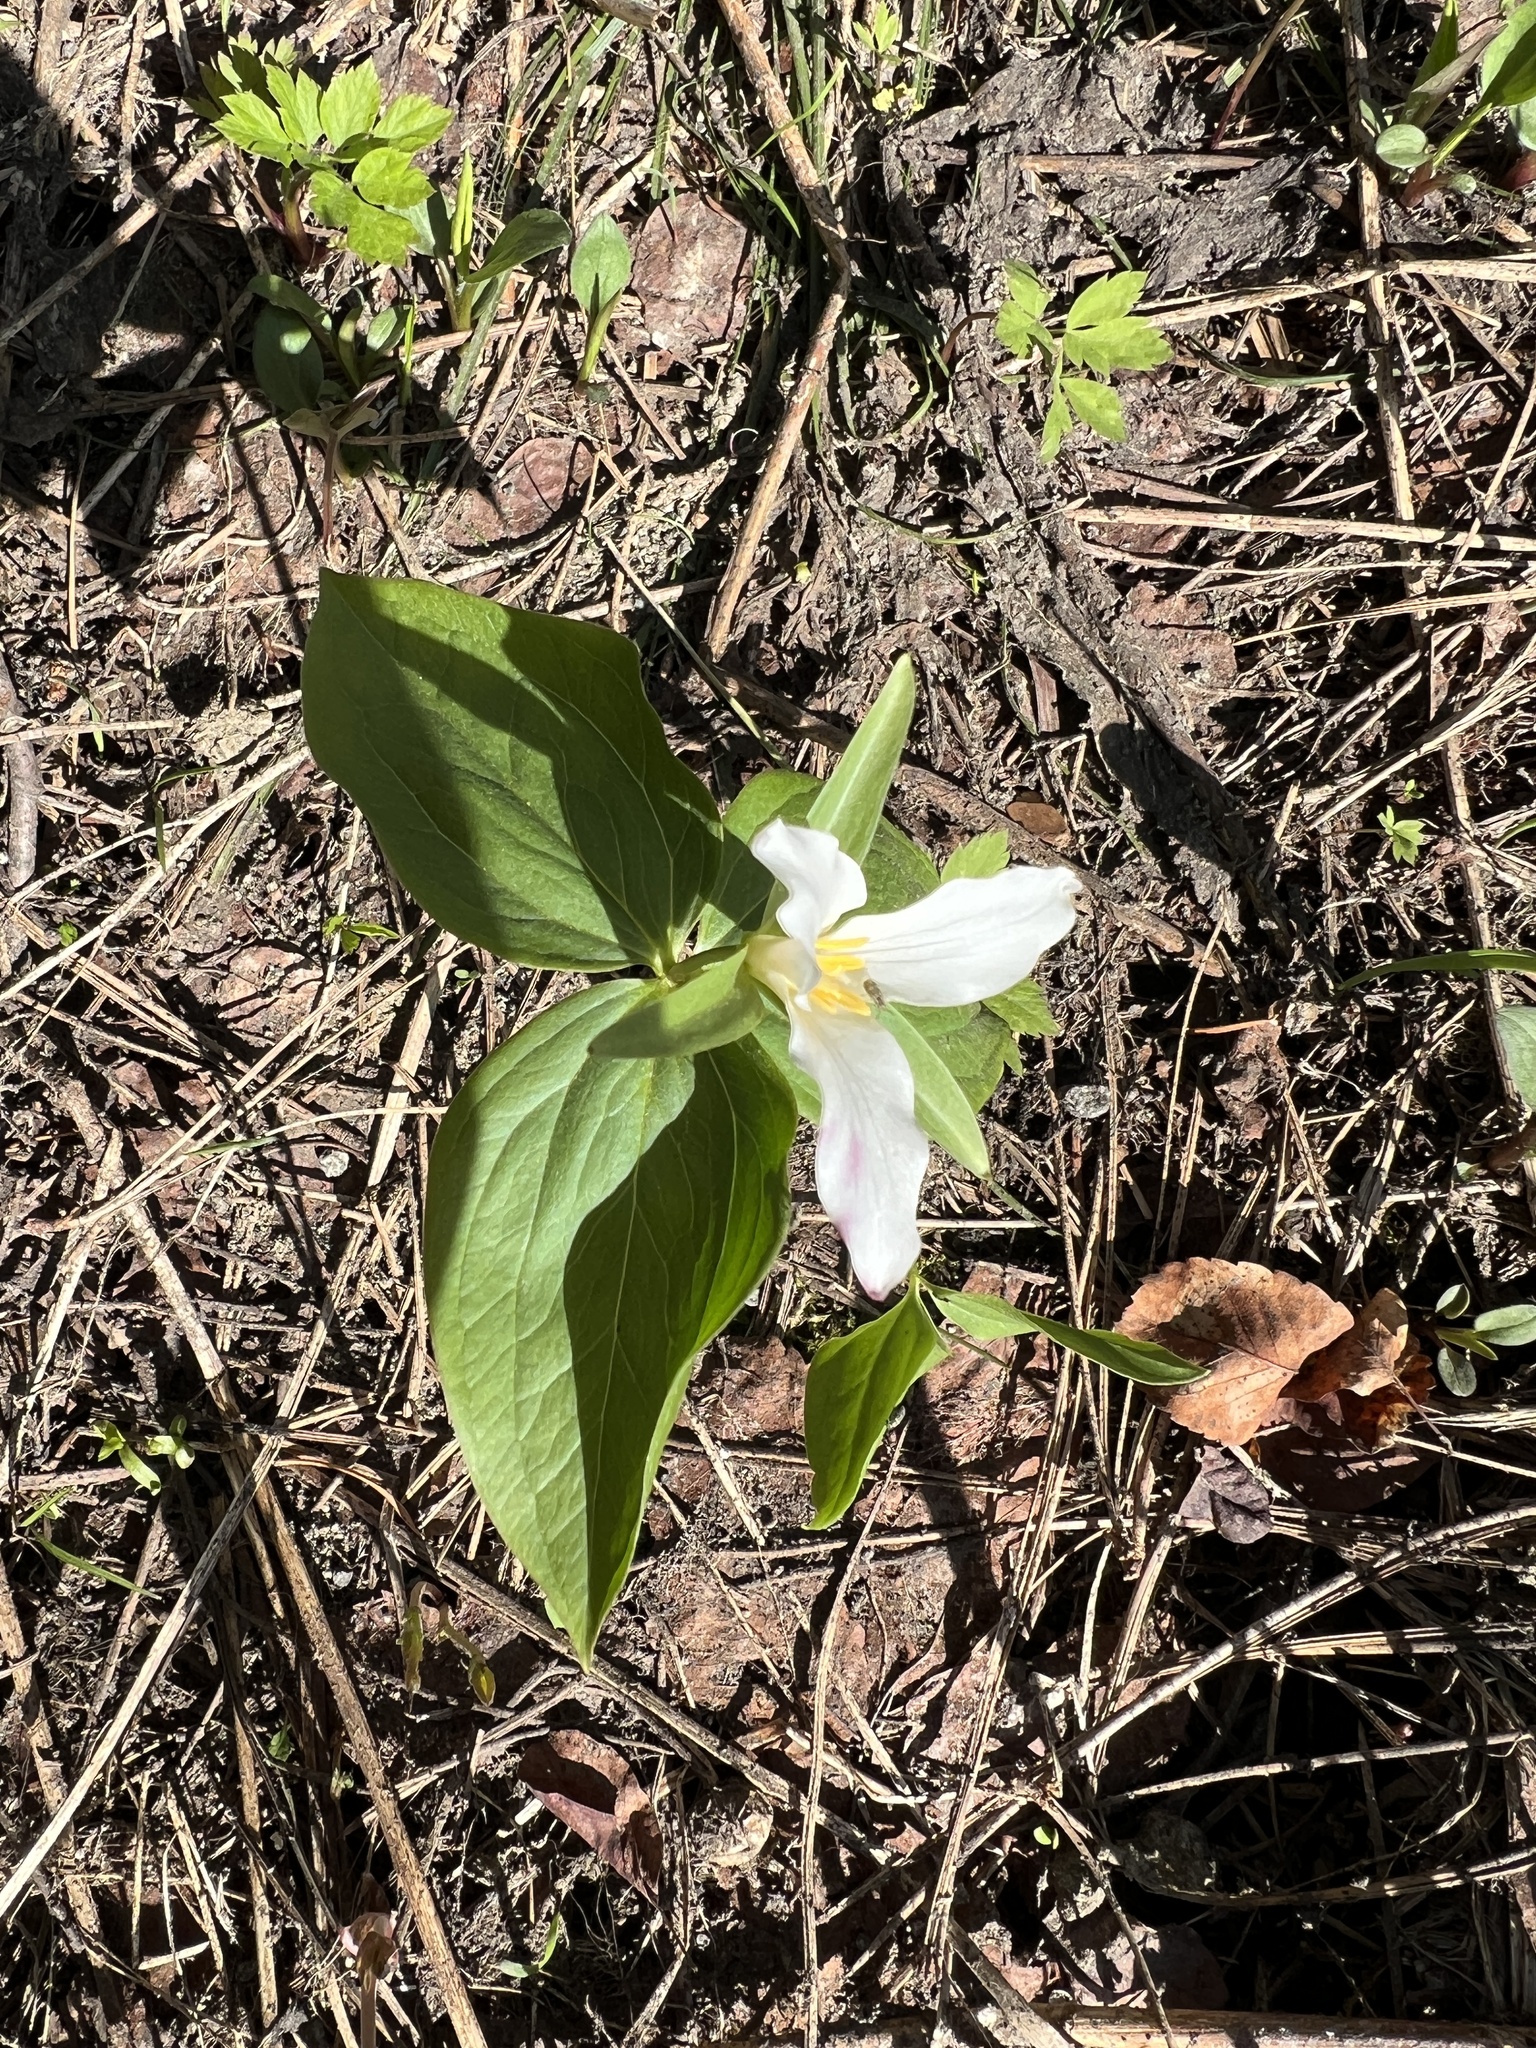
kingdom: Plantae
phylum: Tracheophyta
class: Liliopsida
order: Liliales
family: Melanthiaceae
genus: Trillium
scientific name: Trillium ovatum
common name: Pacific trillium
